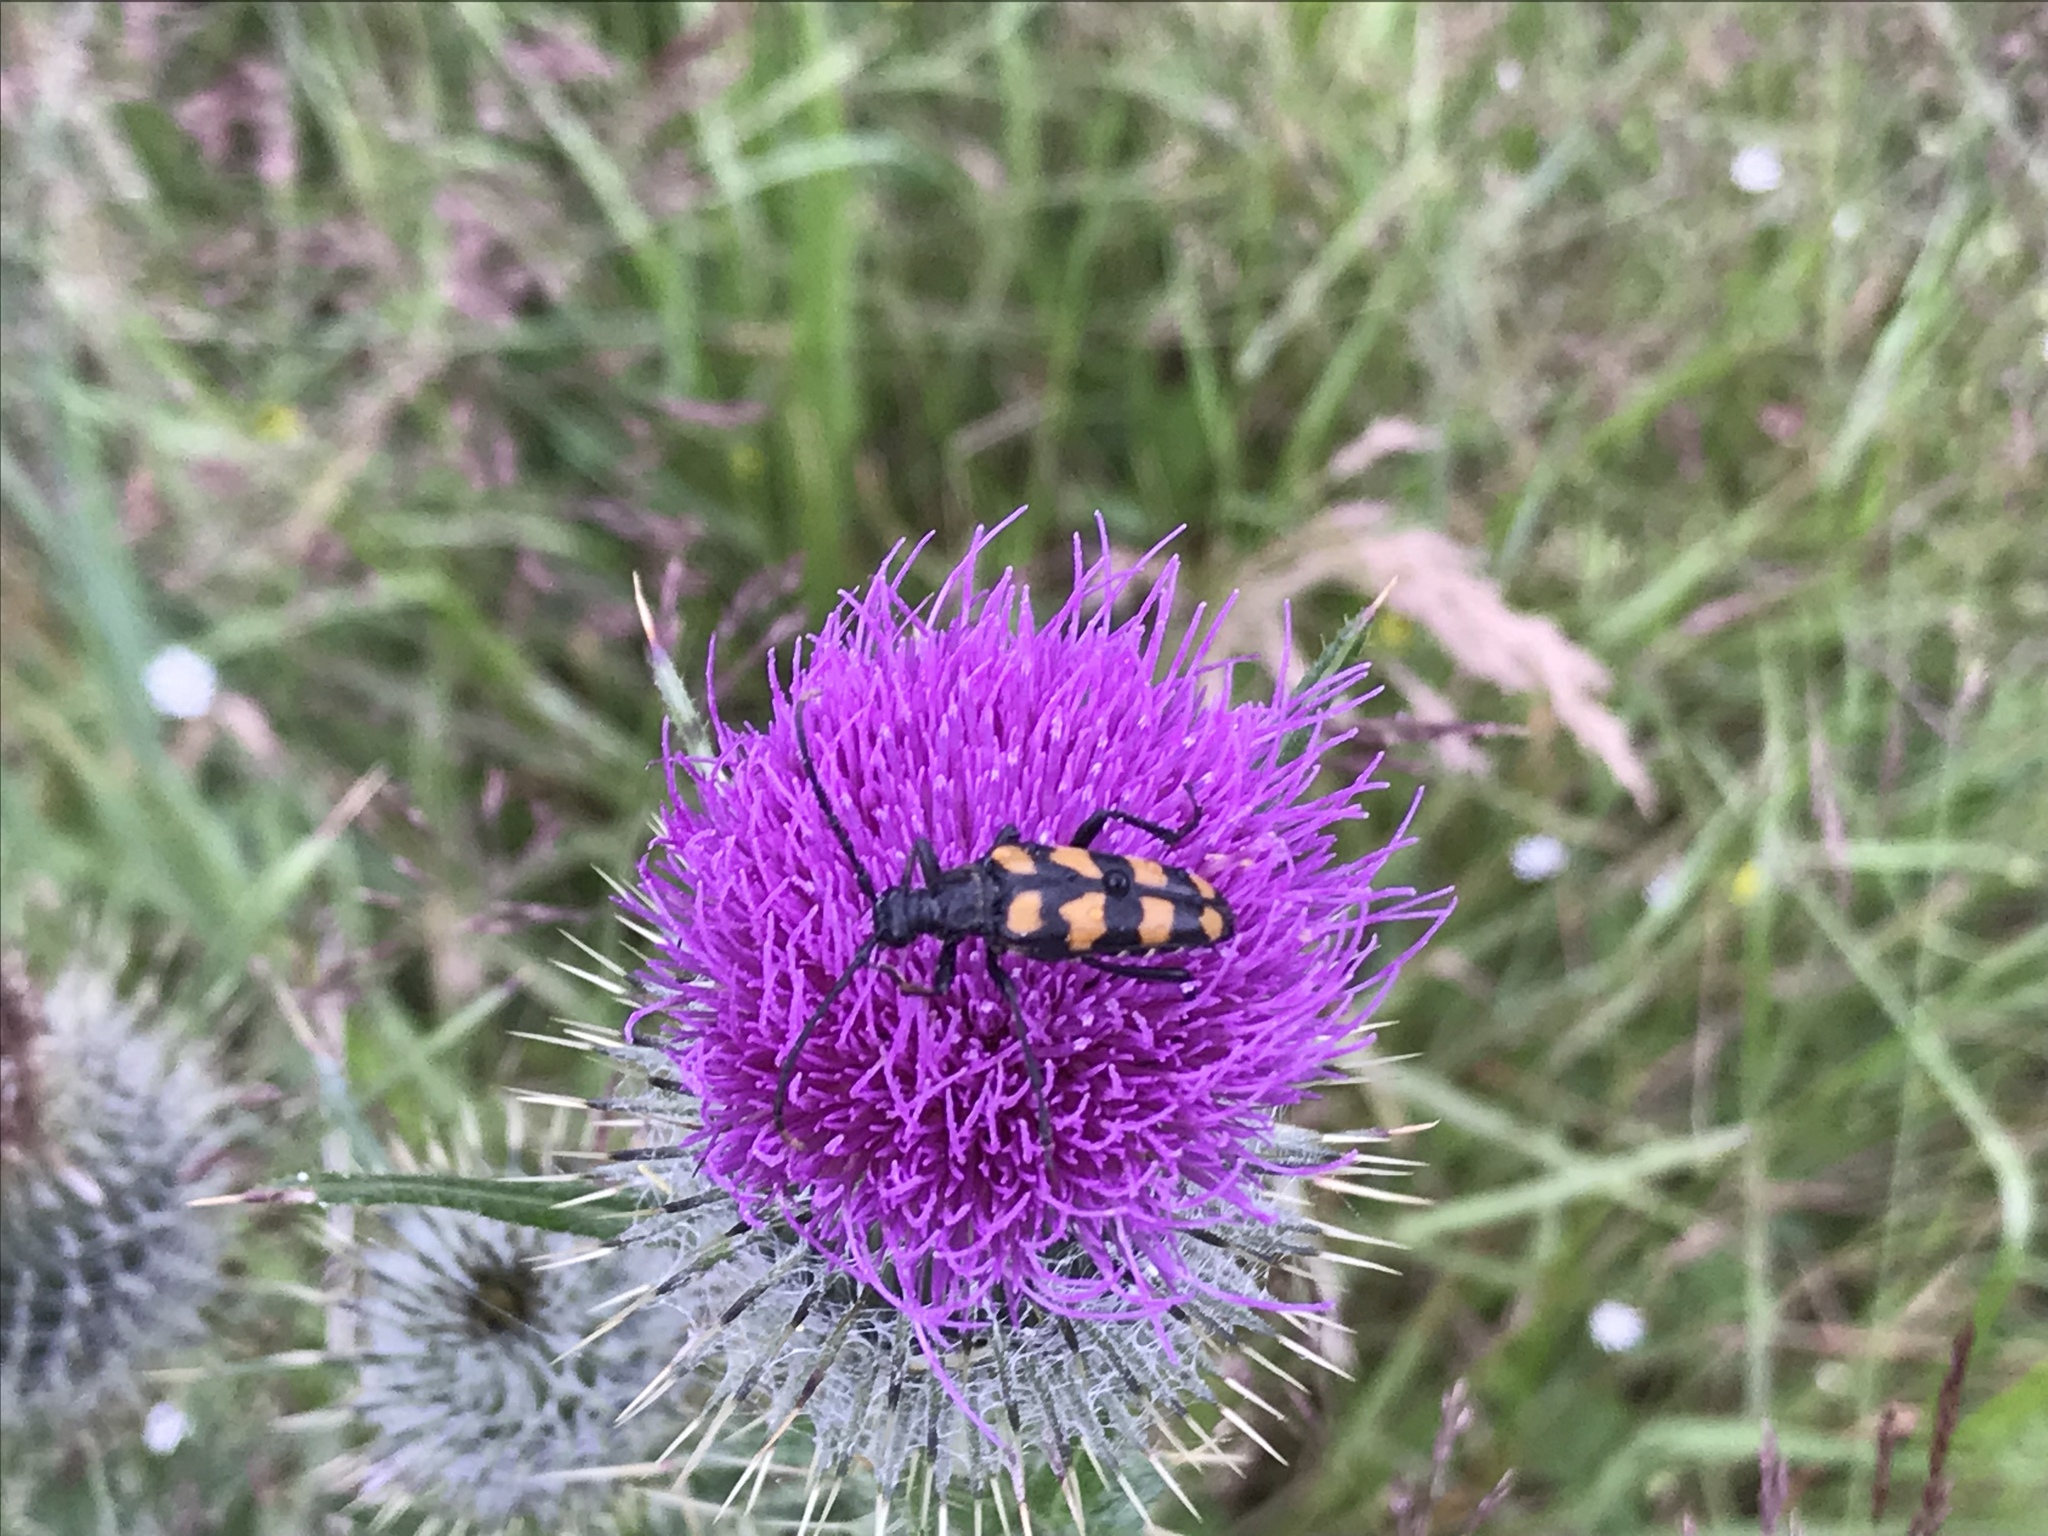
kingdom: Animalia
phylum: Arthropoda
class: Insecta
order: Coleoptera
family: Cerambycidae
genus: Leptura
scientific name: Leptura quadrifasciata
